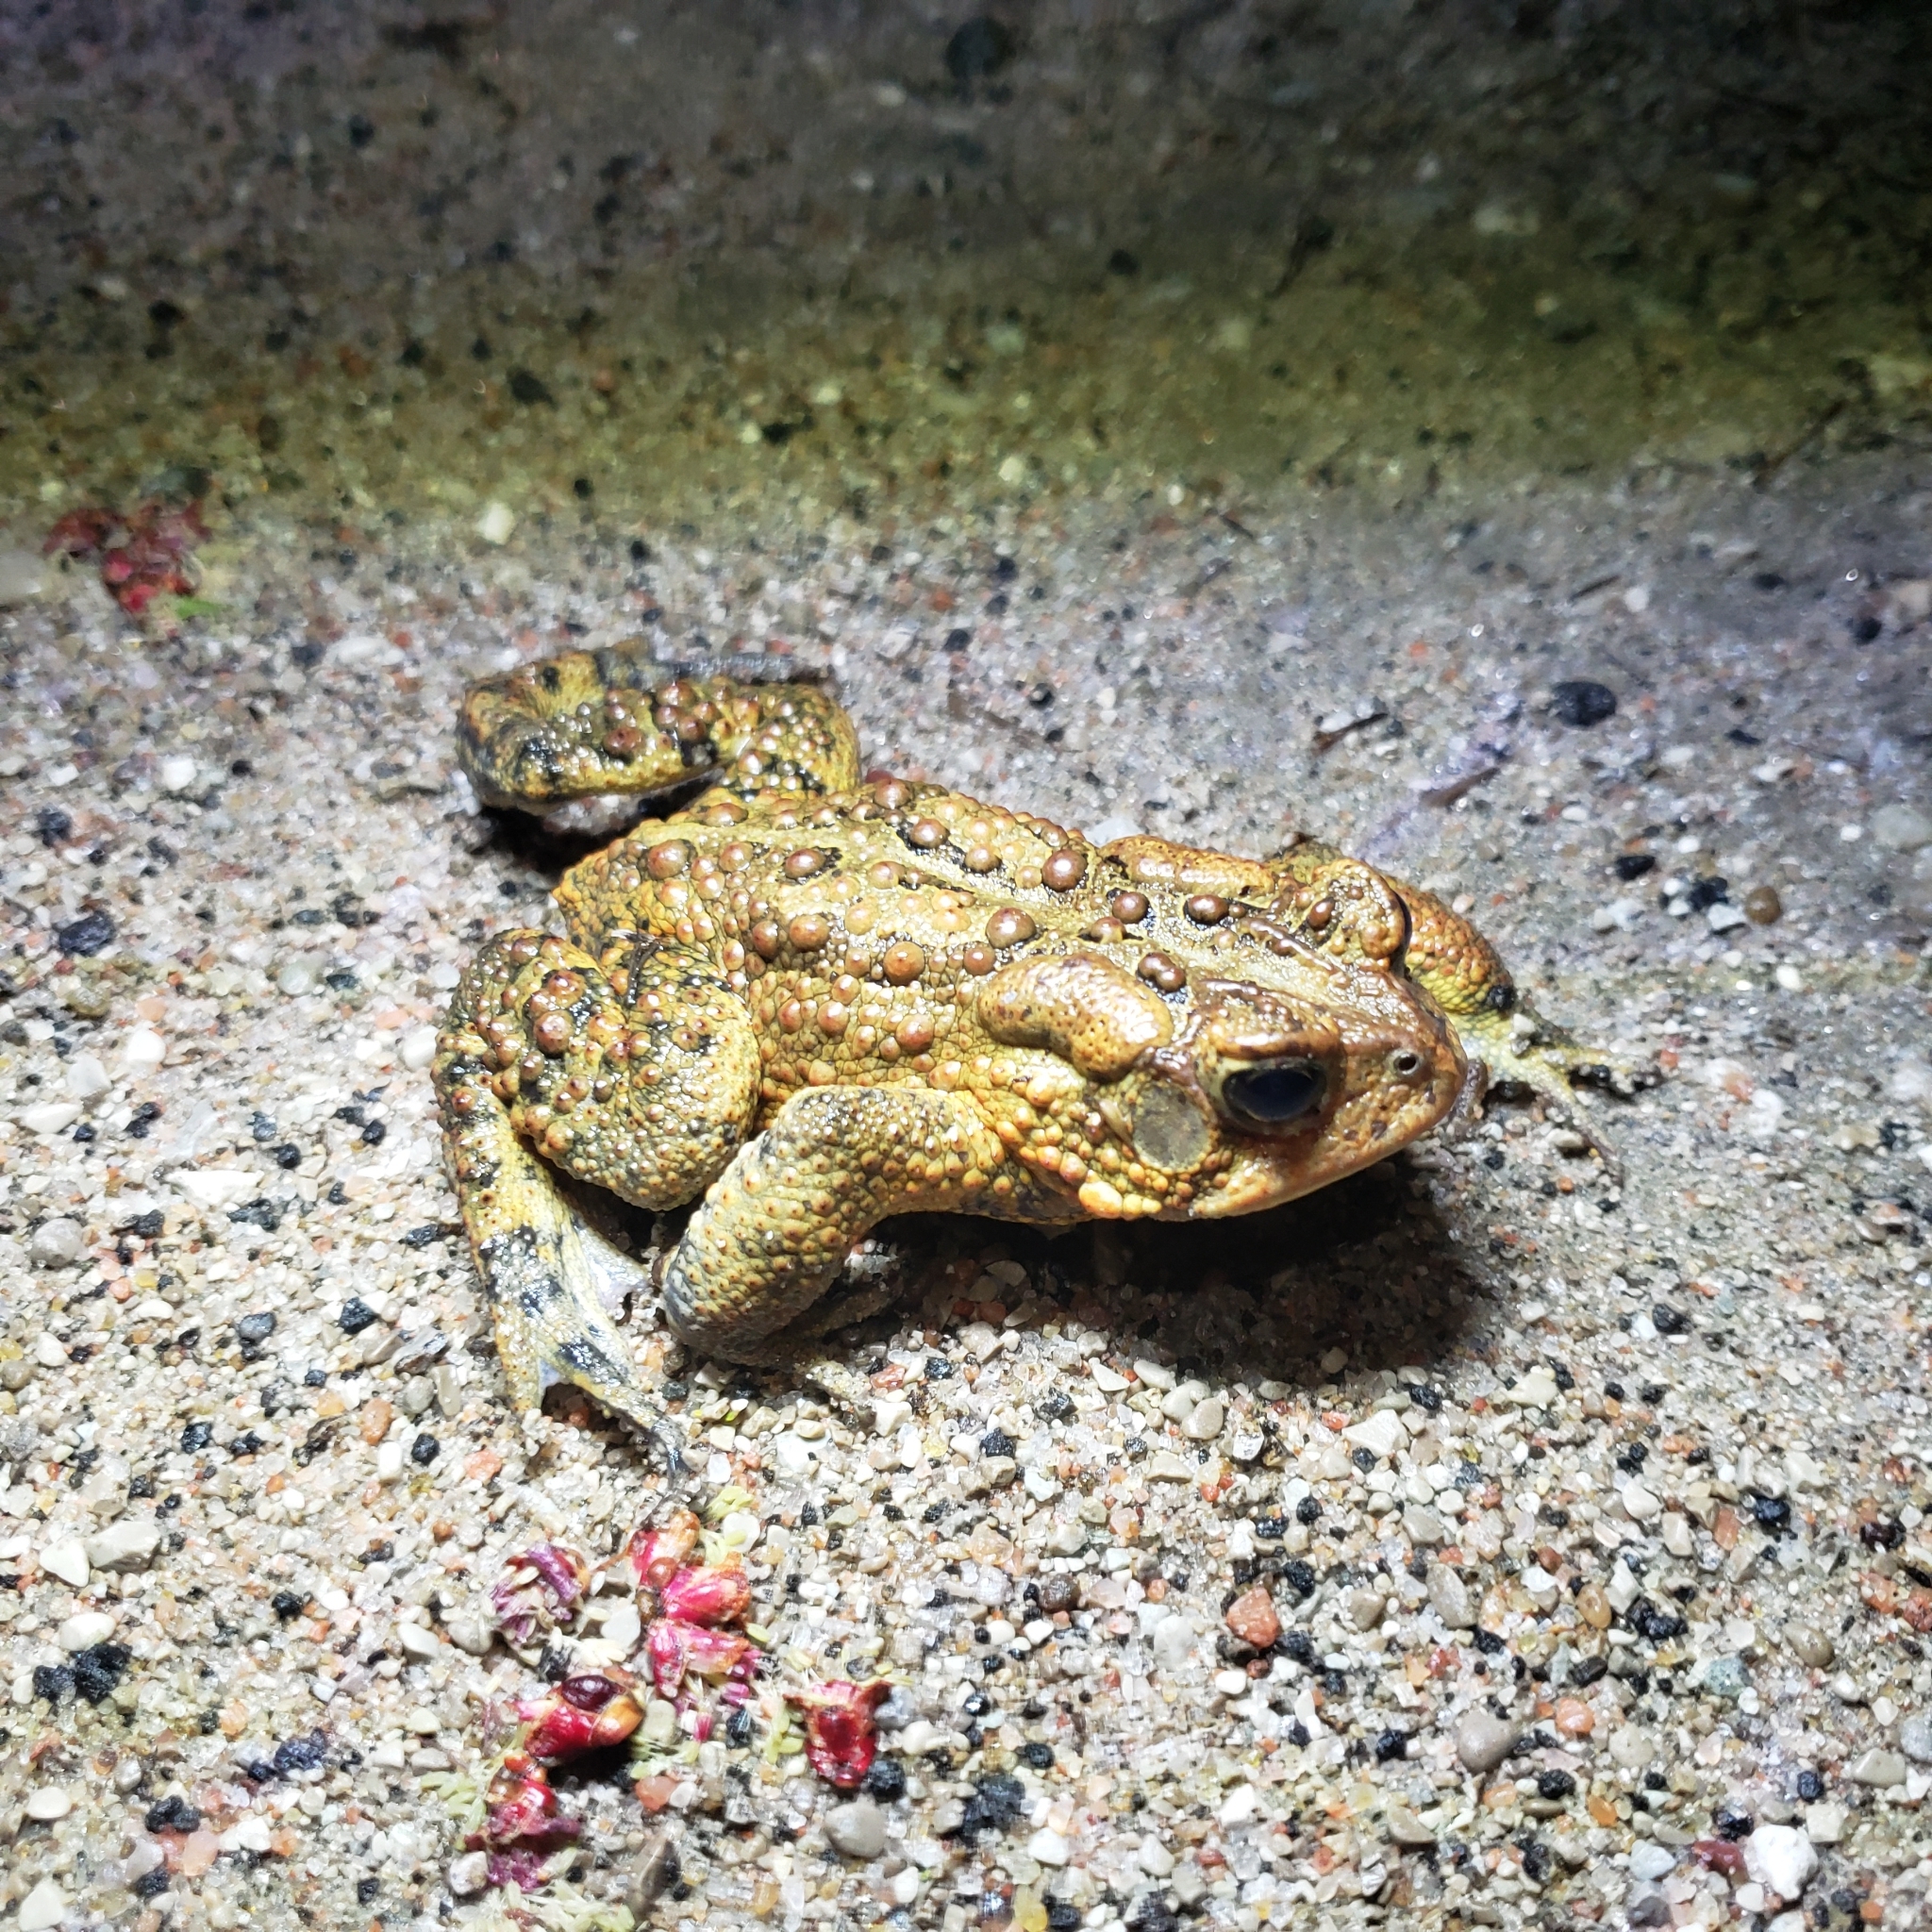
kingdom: Animalia
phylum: Chordata
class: Amphibia
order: Anura
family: Bufonidae
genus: Anaxyrus
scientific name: Anaxyrus americanus
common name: American toad
